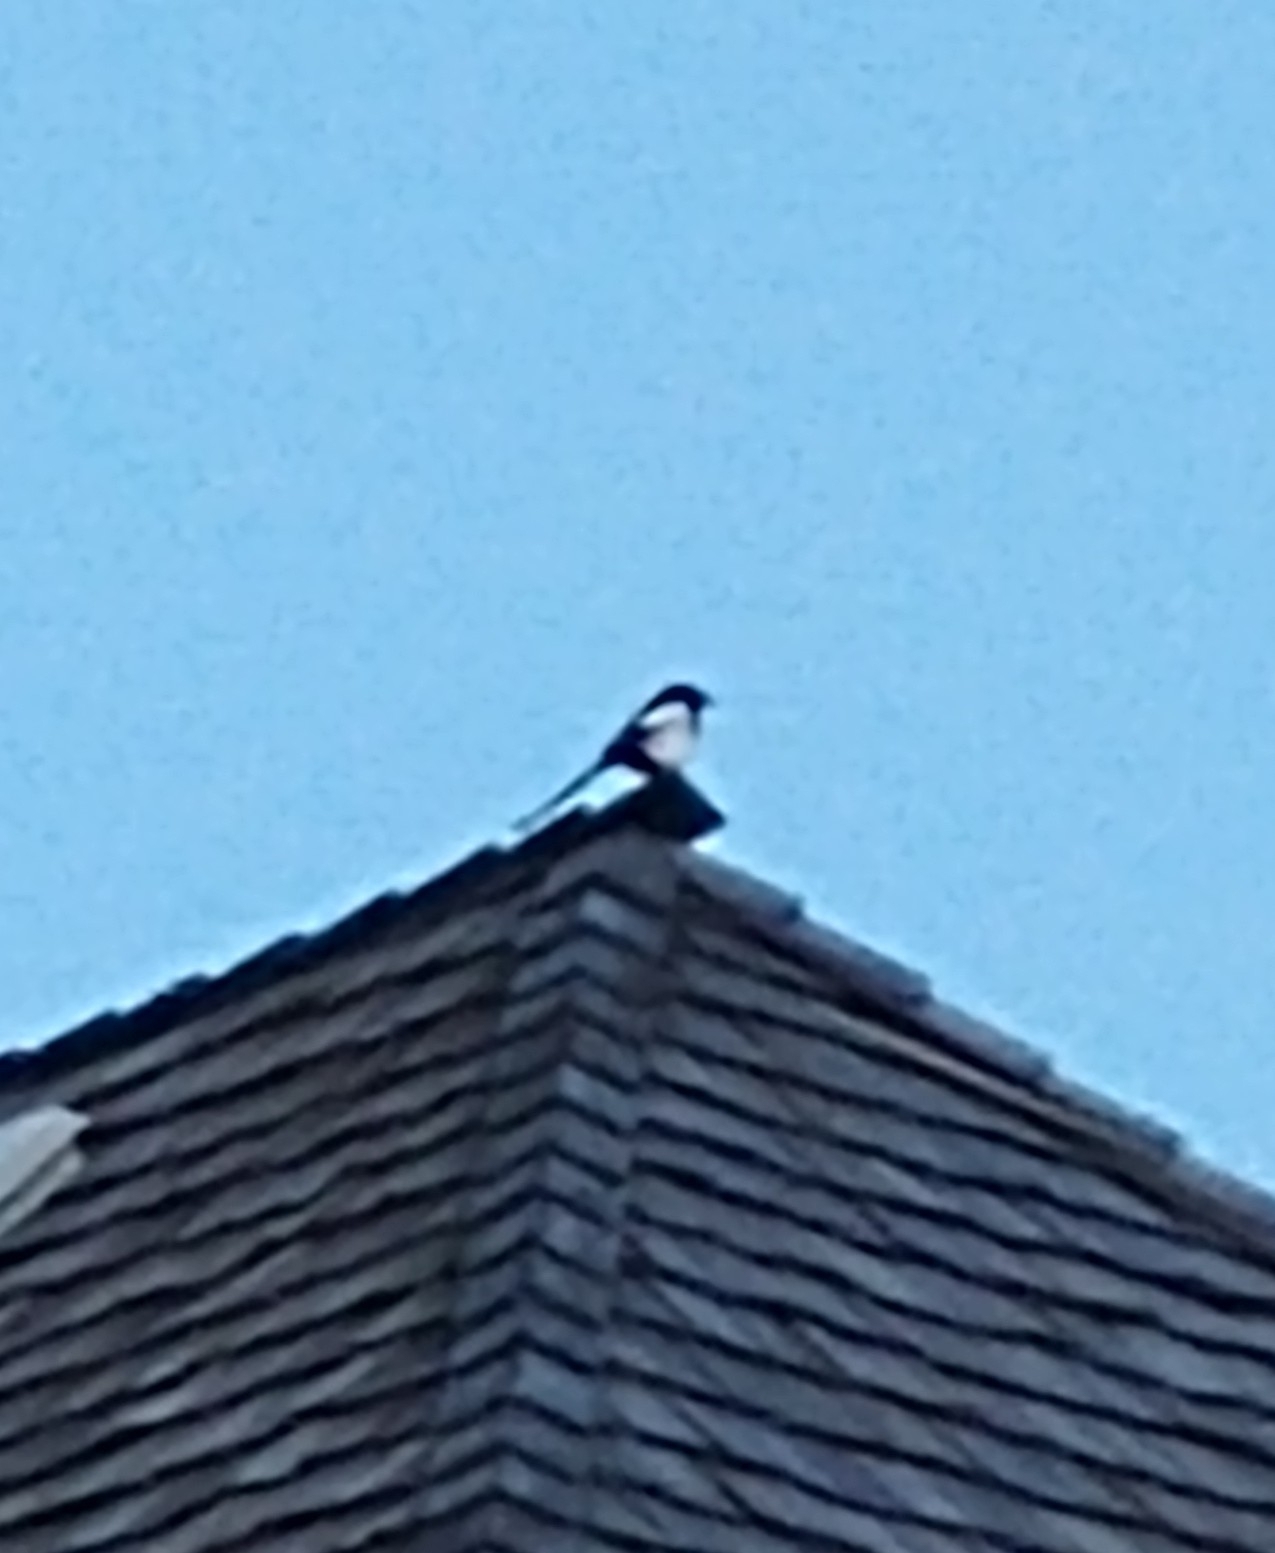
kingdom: Animalia
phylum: Chordata
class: Aves
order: Passeriformes
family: Corvidae
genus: Pica
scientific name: Pica hudsonia
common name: Black-billed magpie
